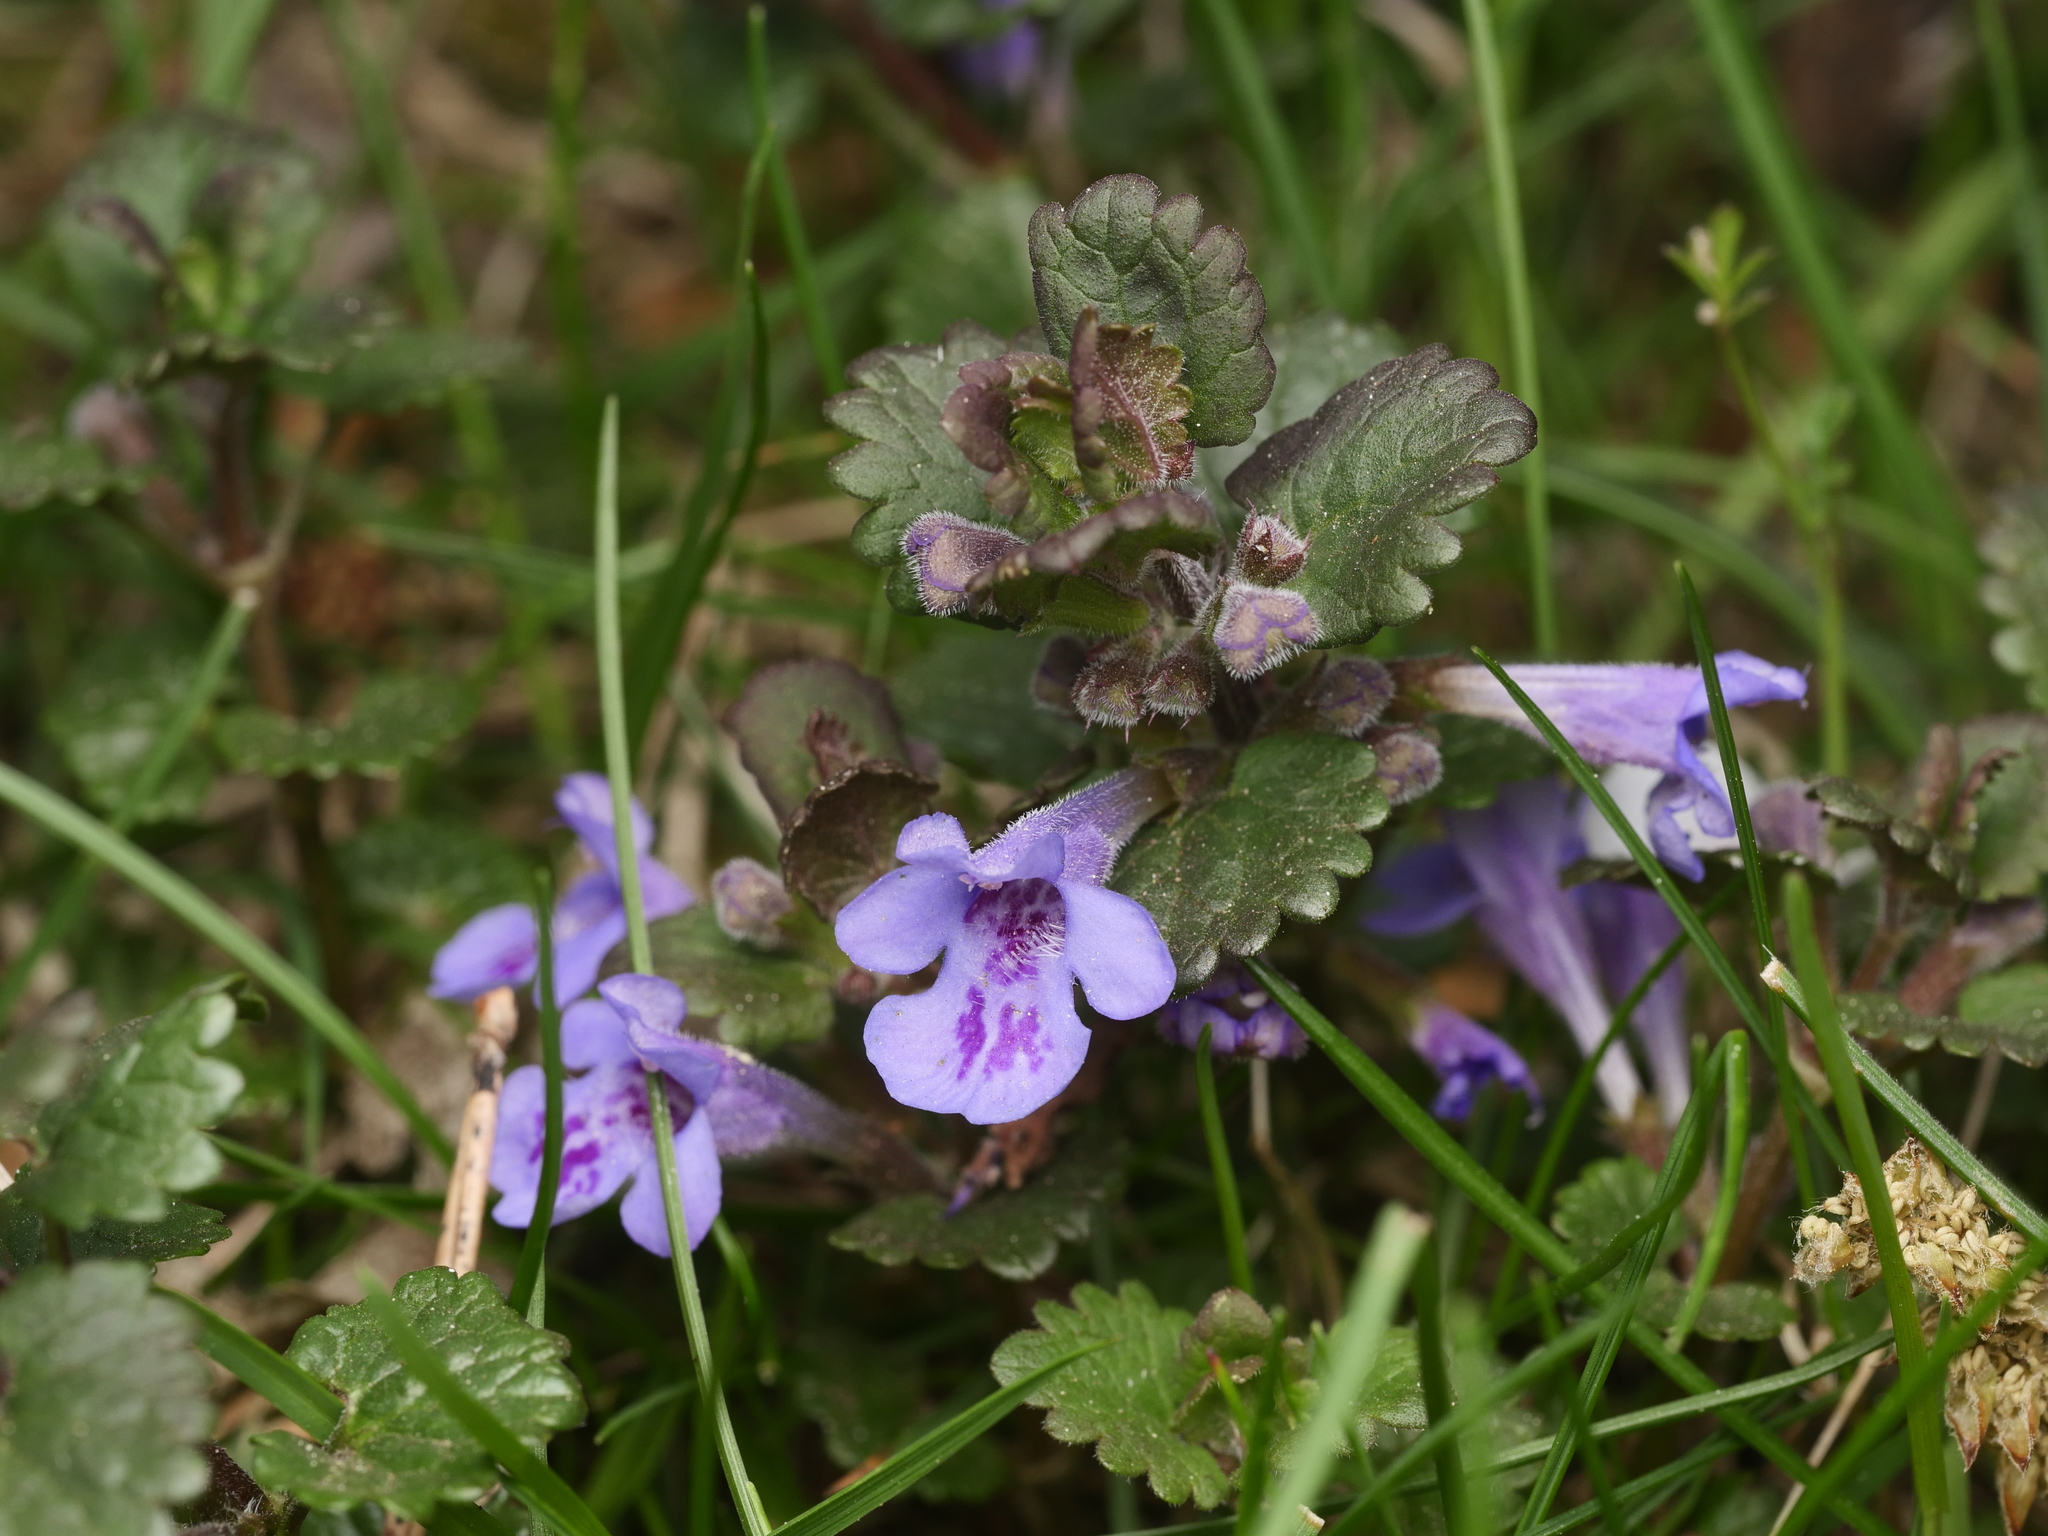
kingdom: Plantae
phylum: Tracheophyta
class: Magnoliopsida
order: Lamiales
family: Lamiaceae
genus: Glechoma
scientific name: Glechoma hederacea
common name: Ground ivy
